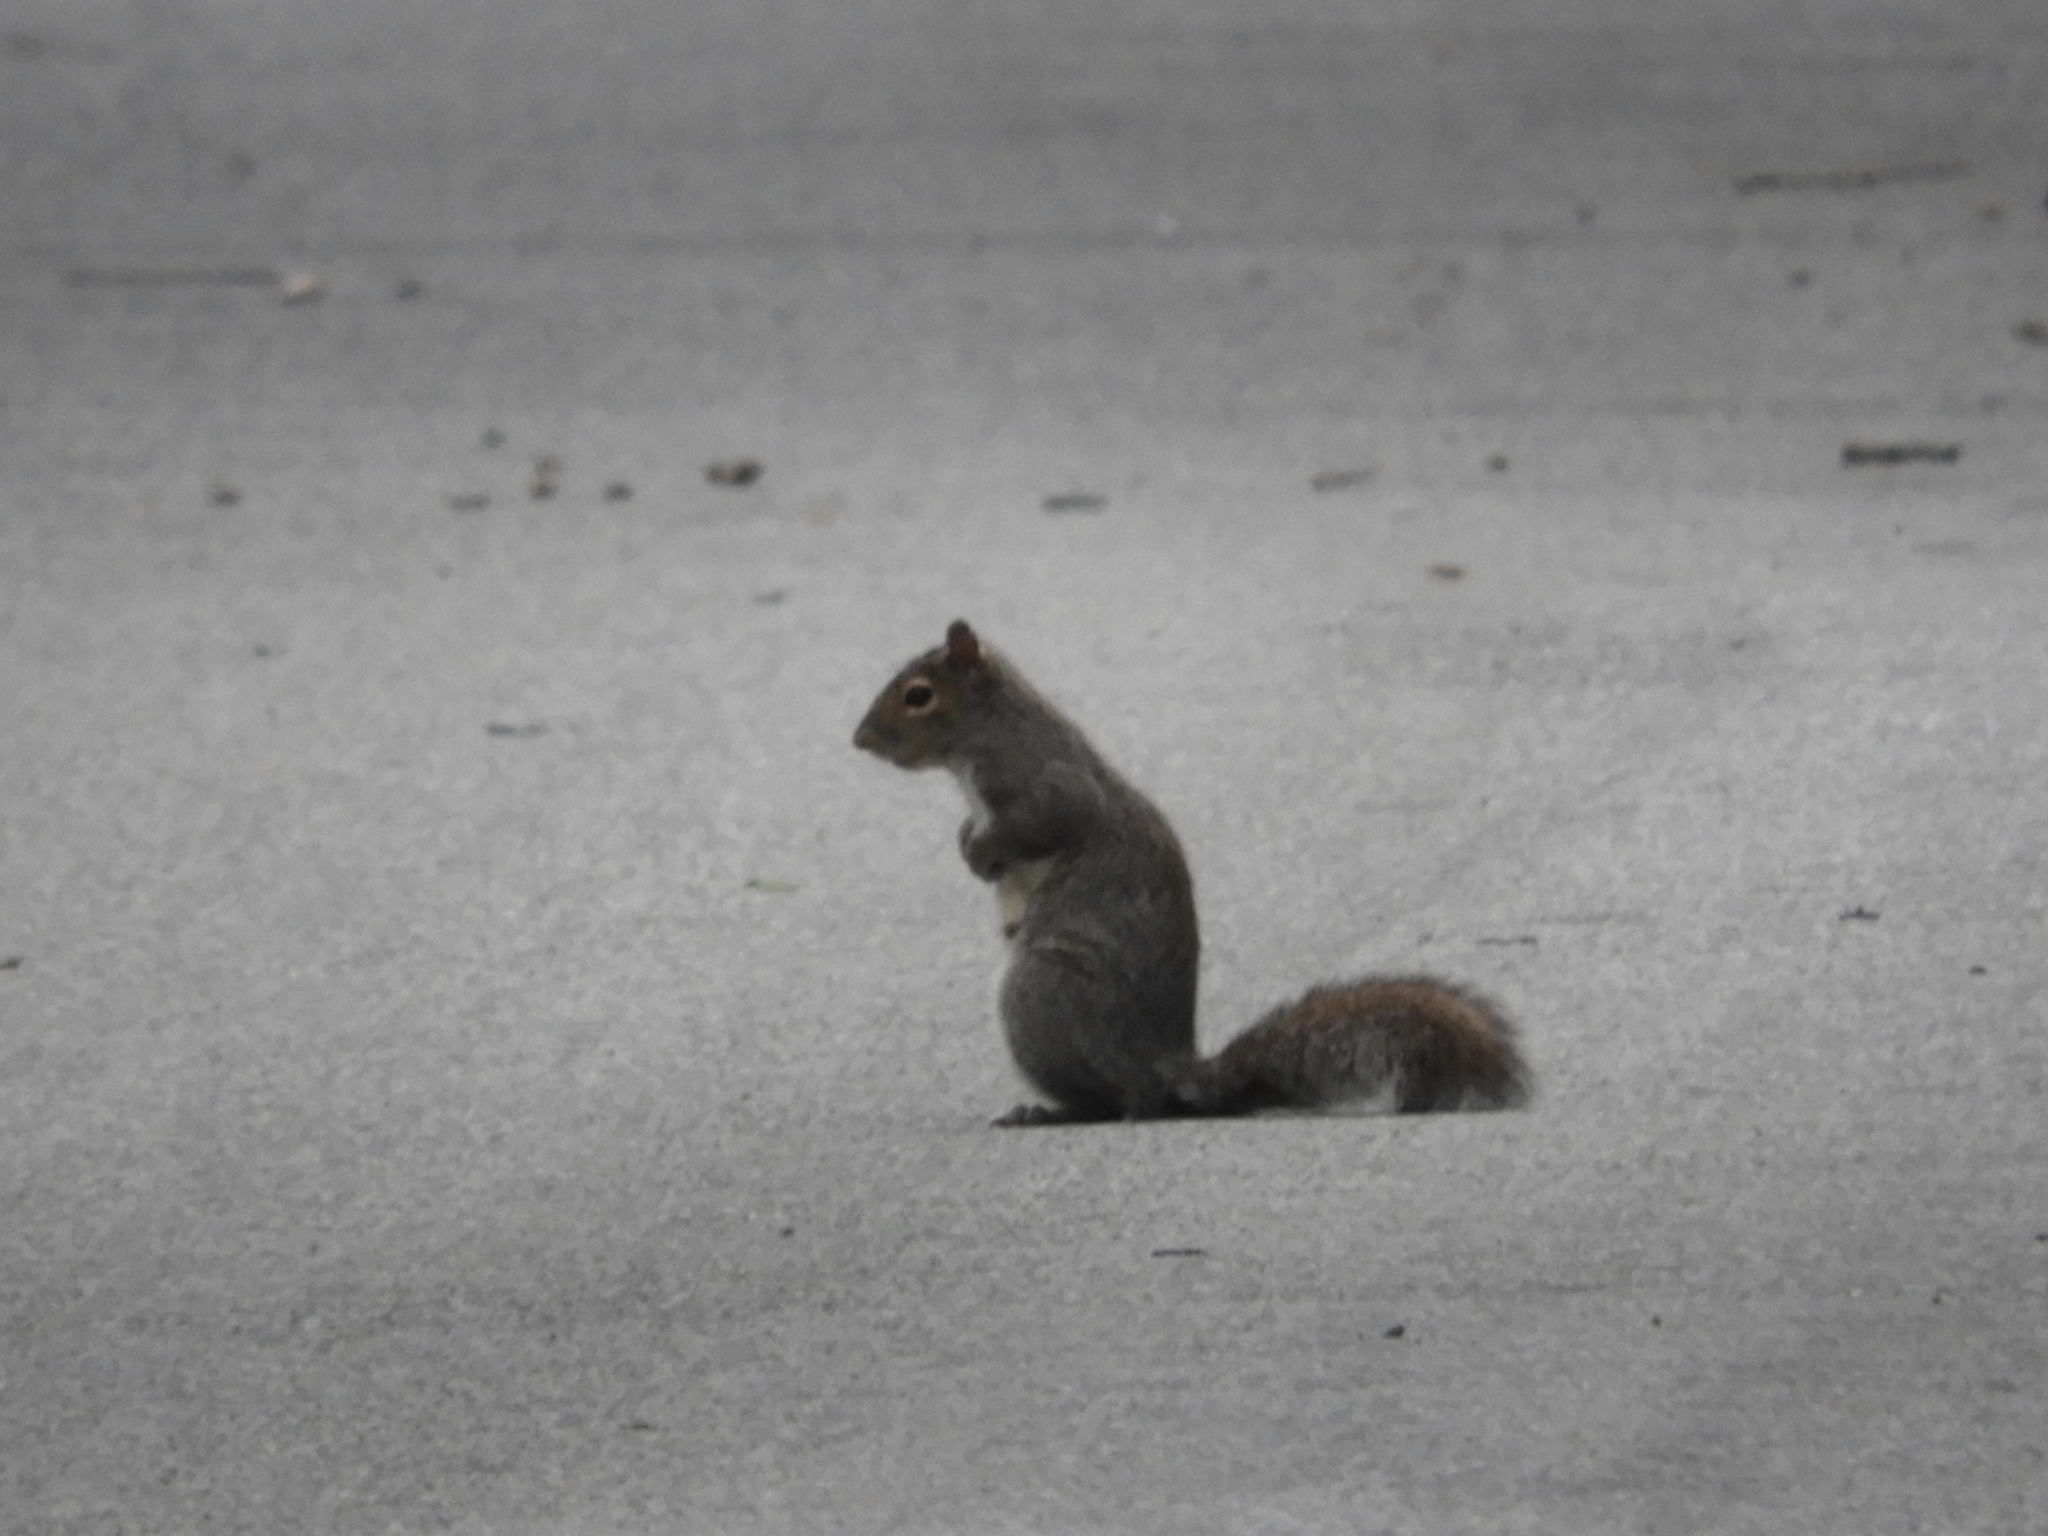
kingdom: Animalia
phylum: Chordata
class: Mammalia
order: Rodentia
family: Sciuridae
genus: Sciurus
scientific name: Sciurus carolinensis
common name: Eastern gray squirrel
